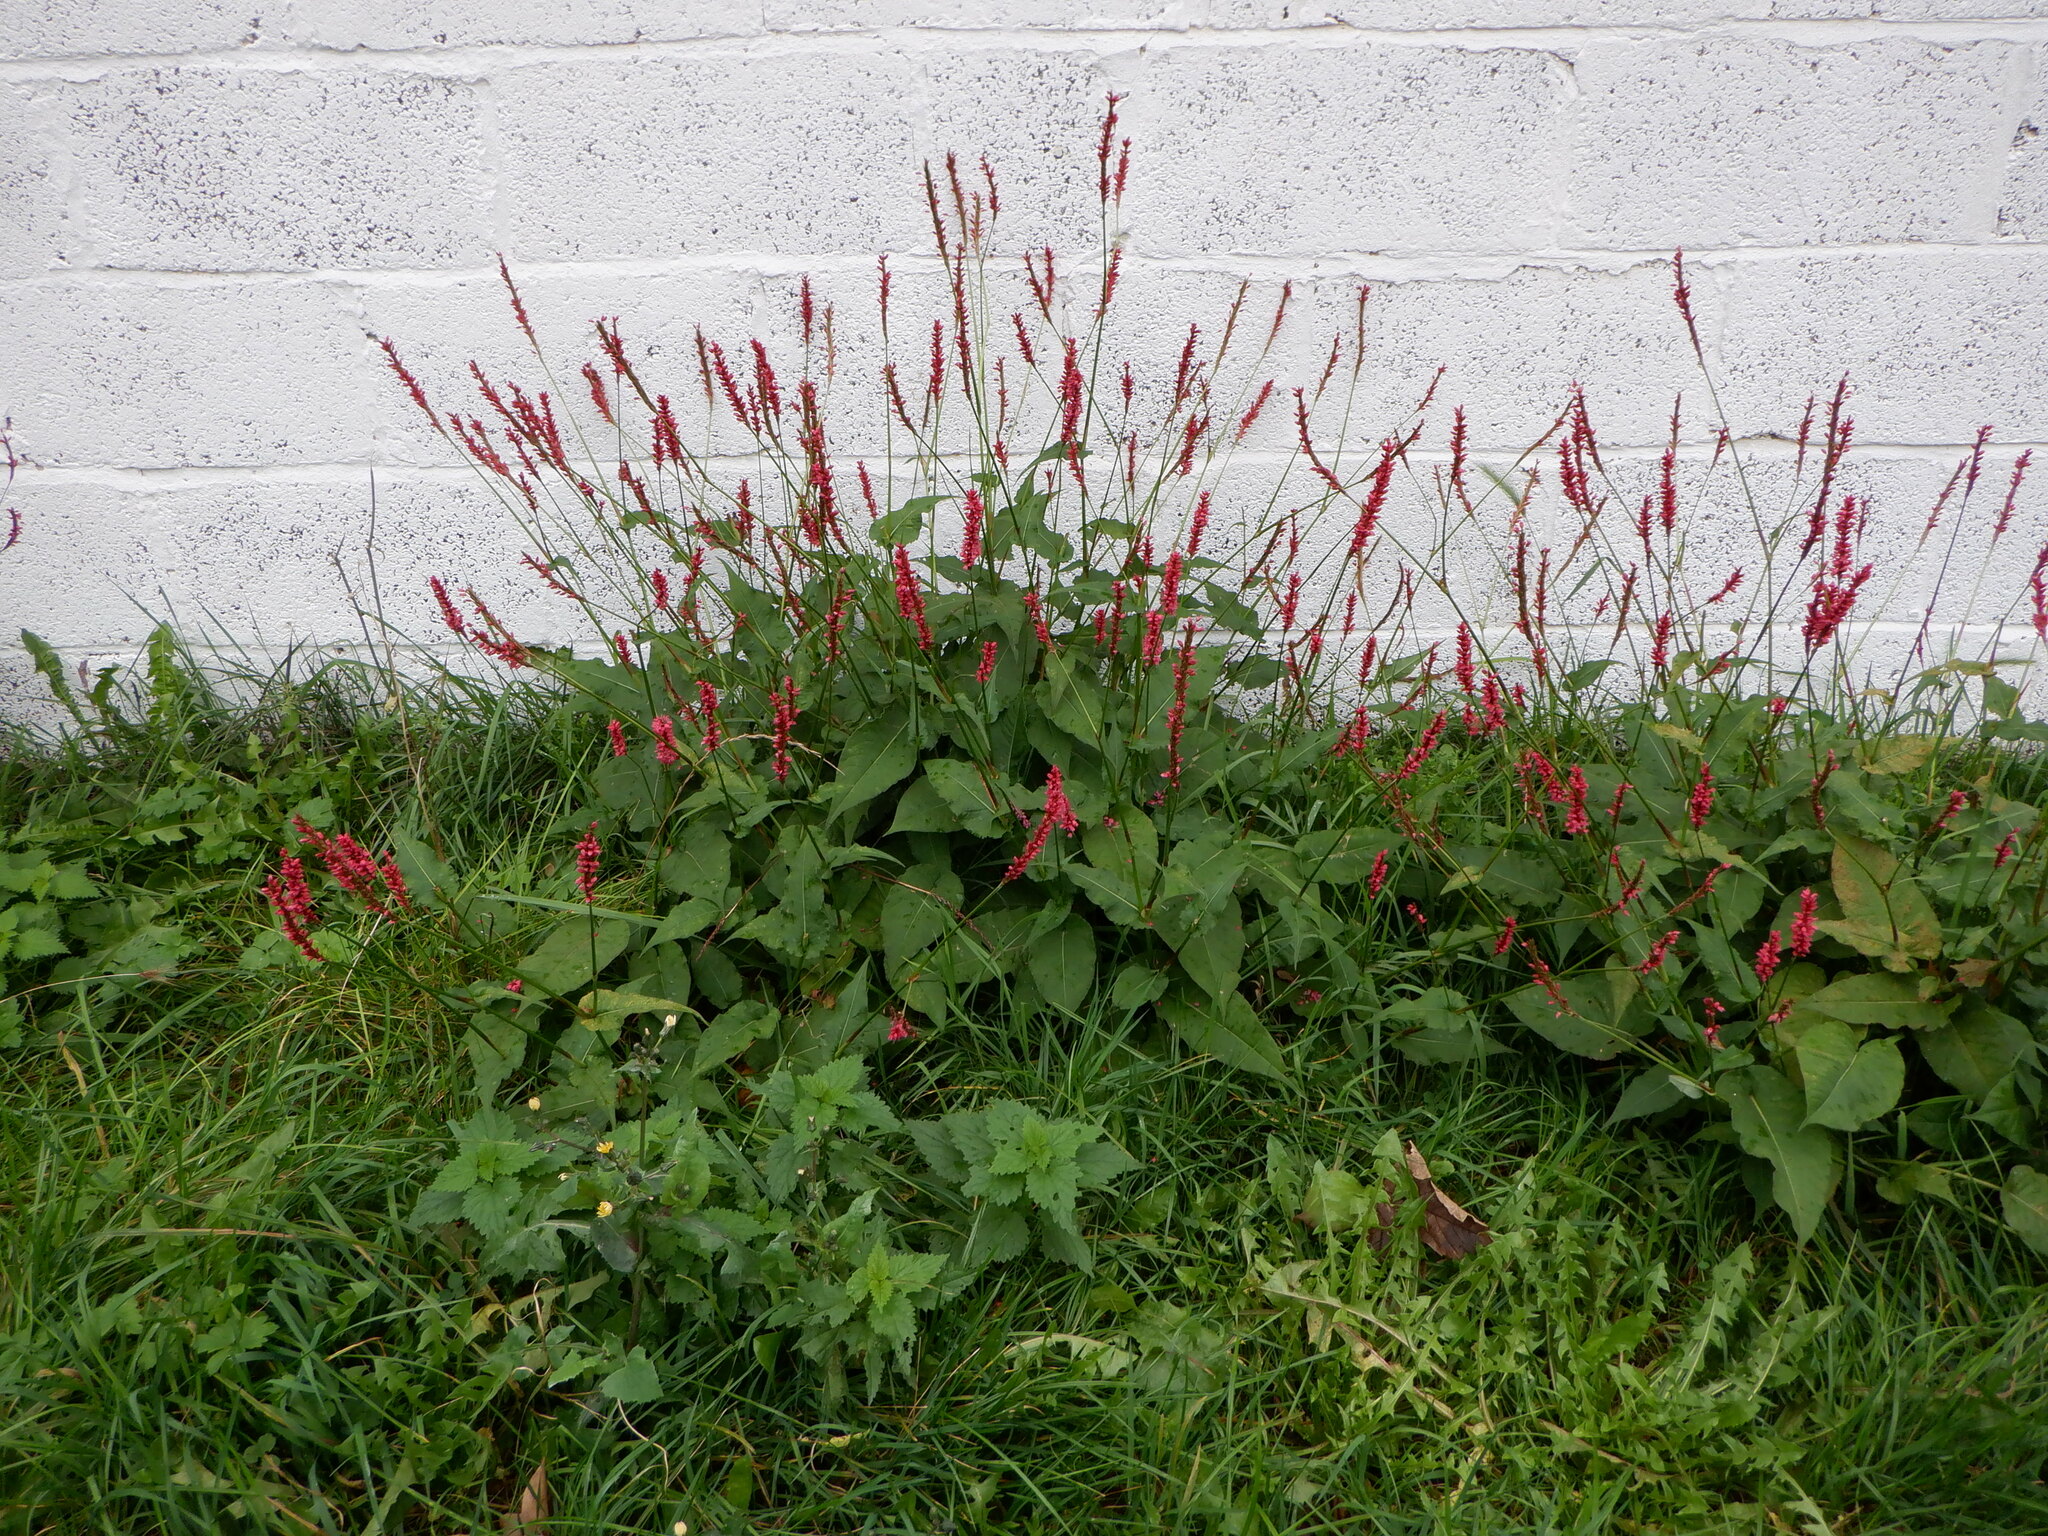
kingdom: Plantae
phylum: Tracheophyta
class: Magnoliopsida
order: Caryophyllales
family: Polygonaceae
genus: Bistorta
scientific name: Bistorta amplexicaulis
